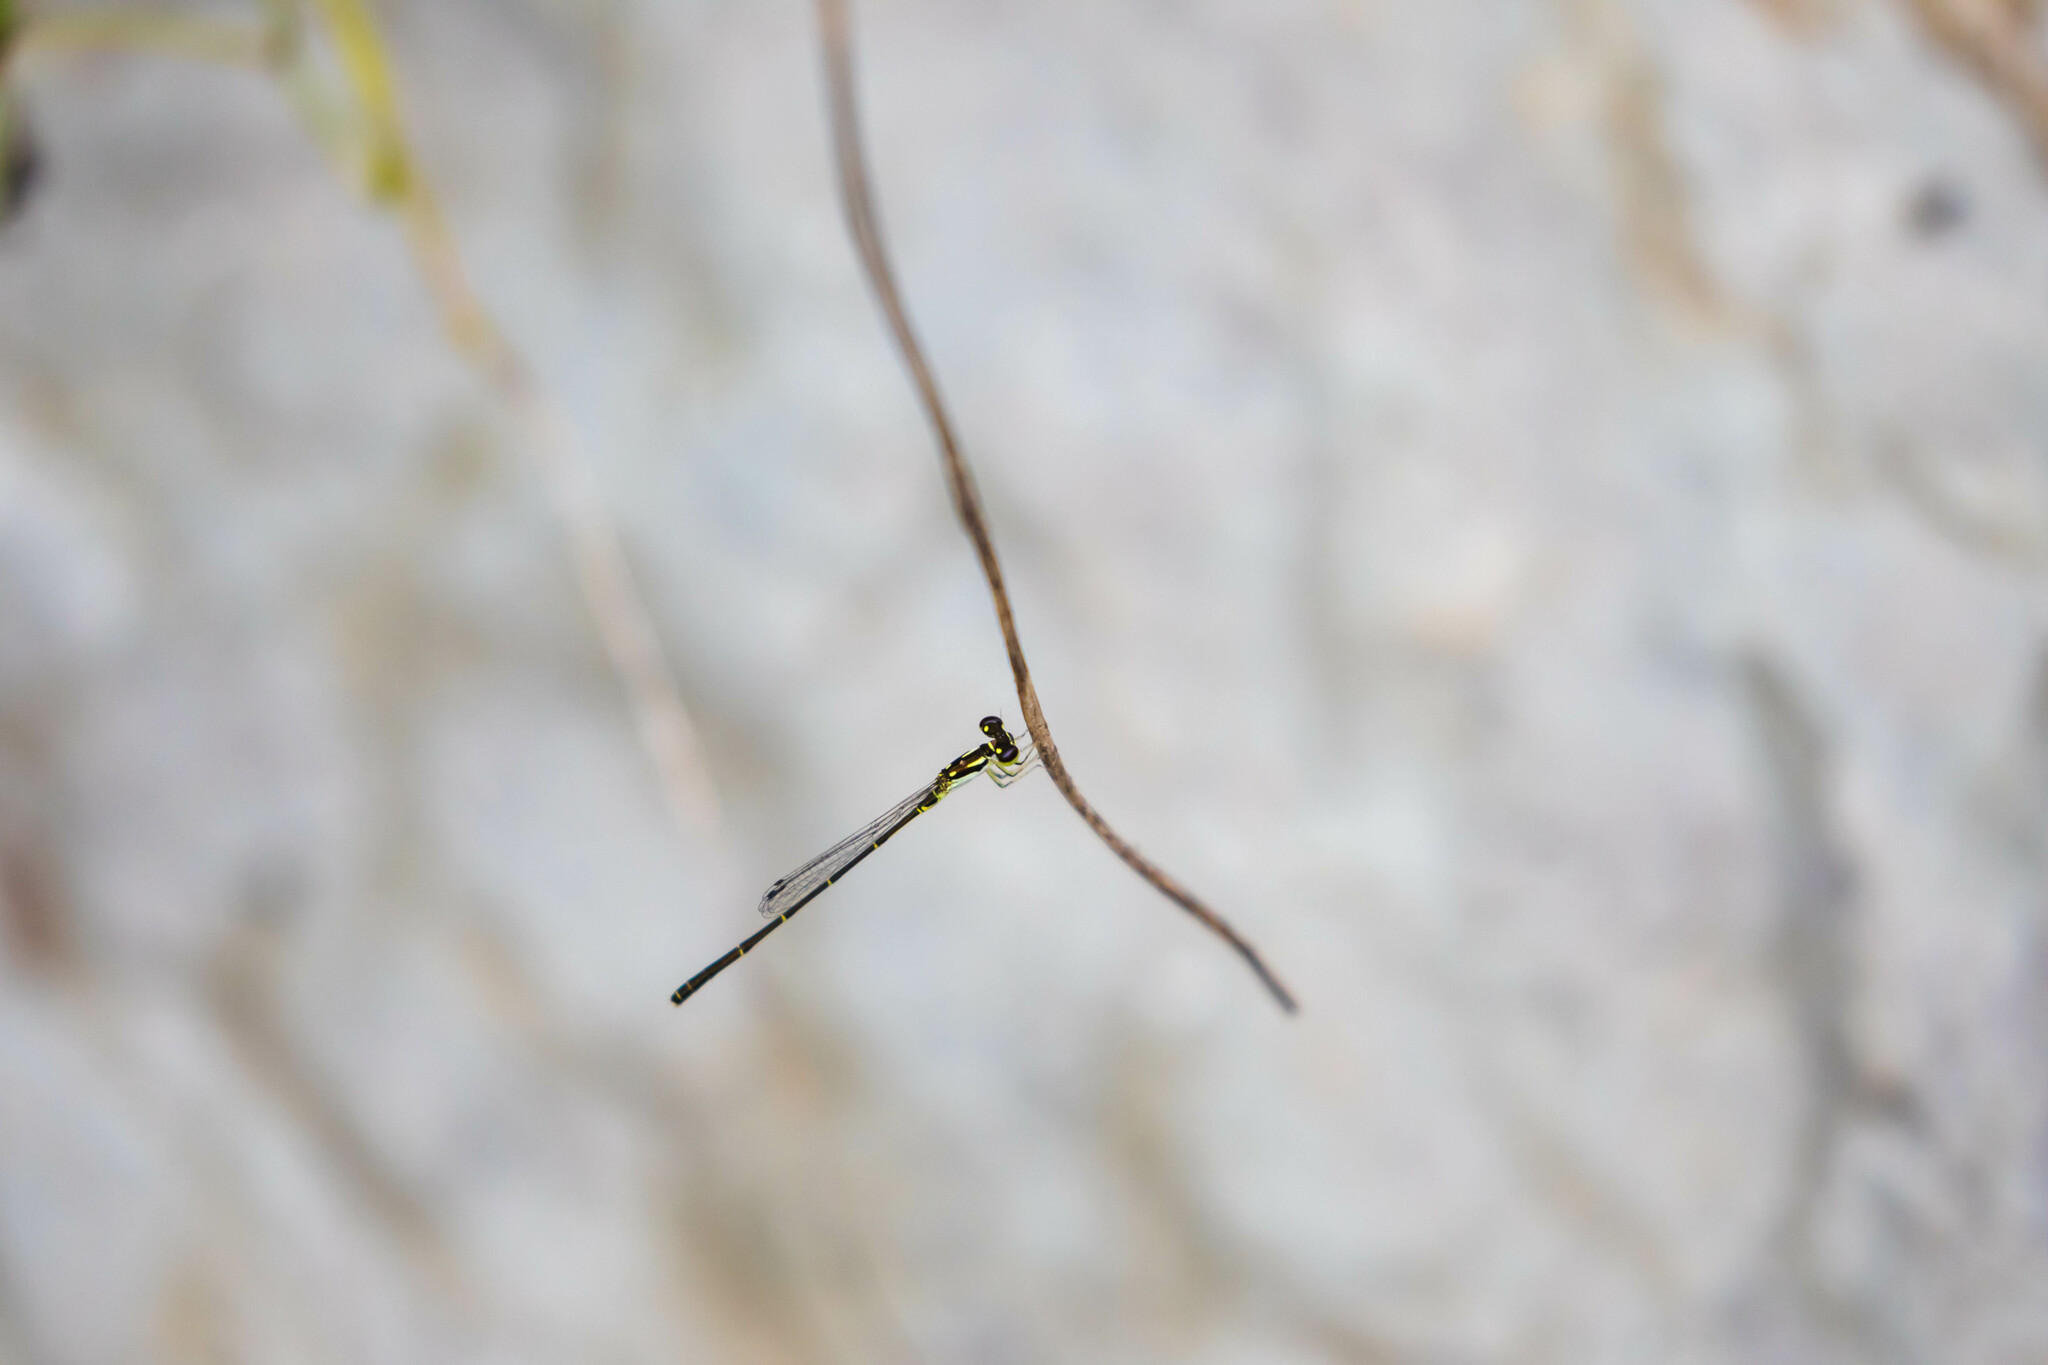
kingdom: Animalia
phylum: Arthropoda
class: Insecta
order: Odonata
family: Coenagrionidae
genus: Ischnura
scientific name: Ischnura posita
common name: Fragile forktail
